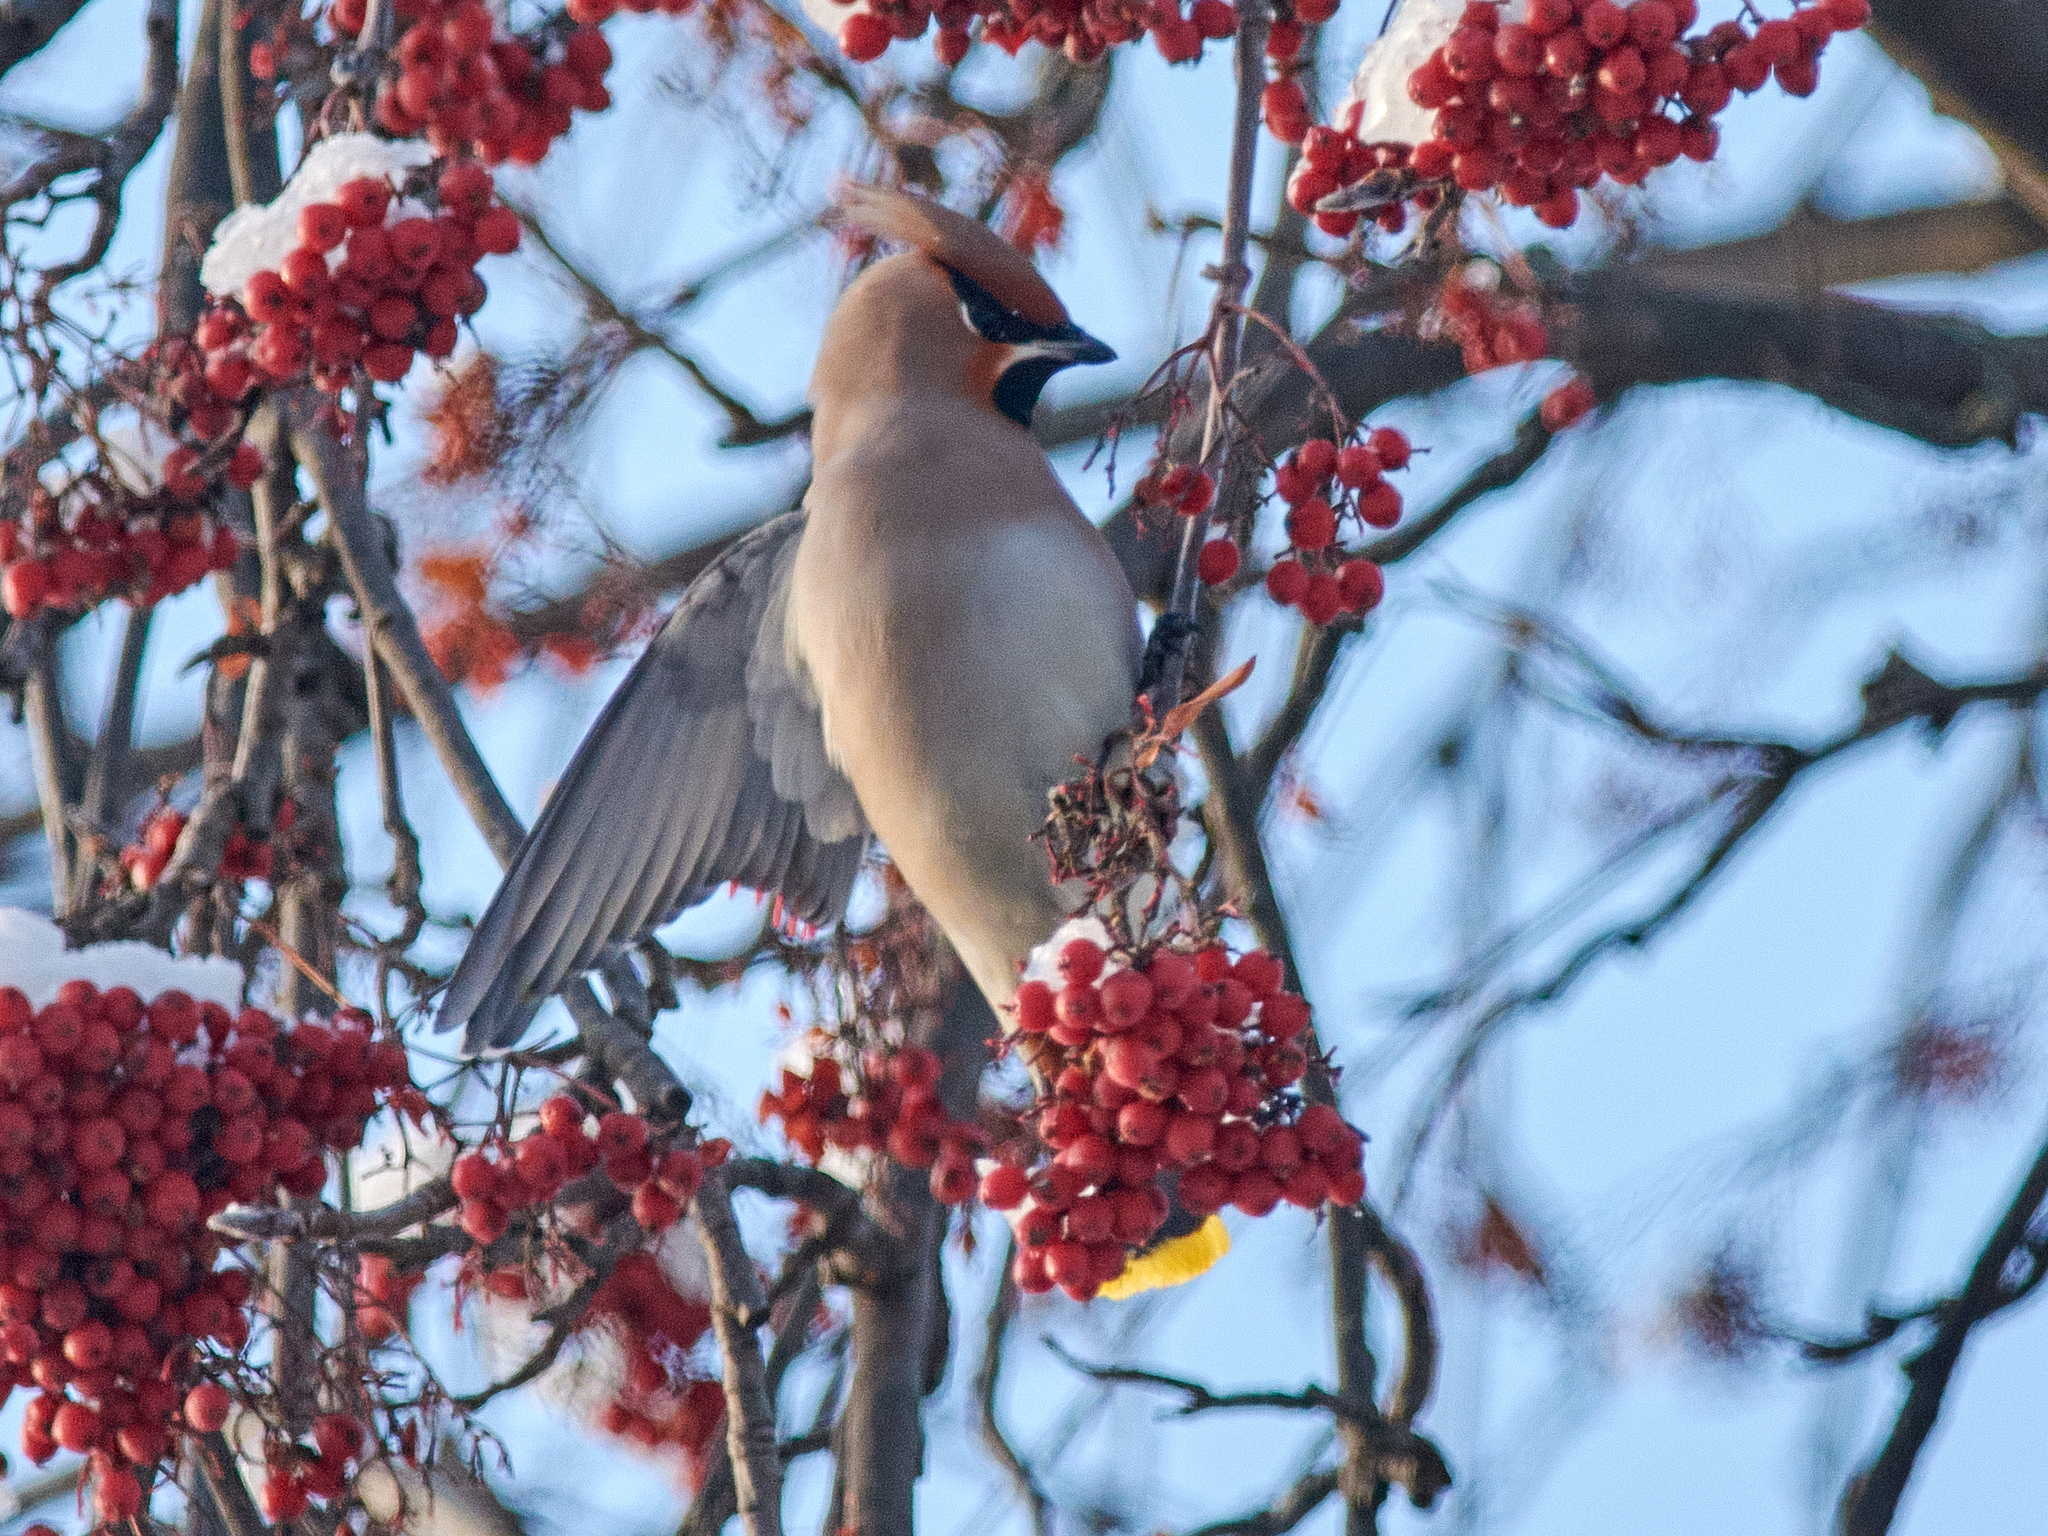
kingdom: Animalia
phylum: Chordata
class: Aves
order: Passeriformes
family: Bombycillidae
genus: Bombycilla
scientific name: Bombycilla garrulus
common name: Bohemian waxwing
